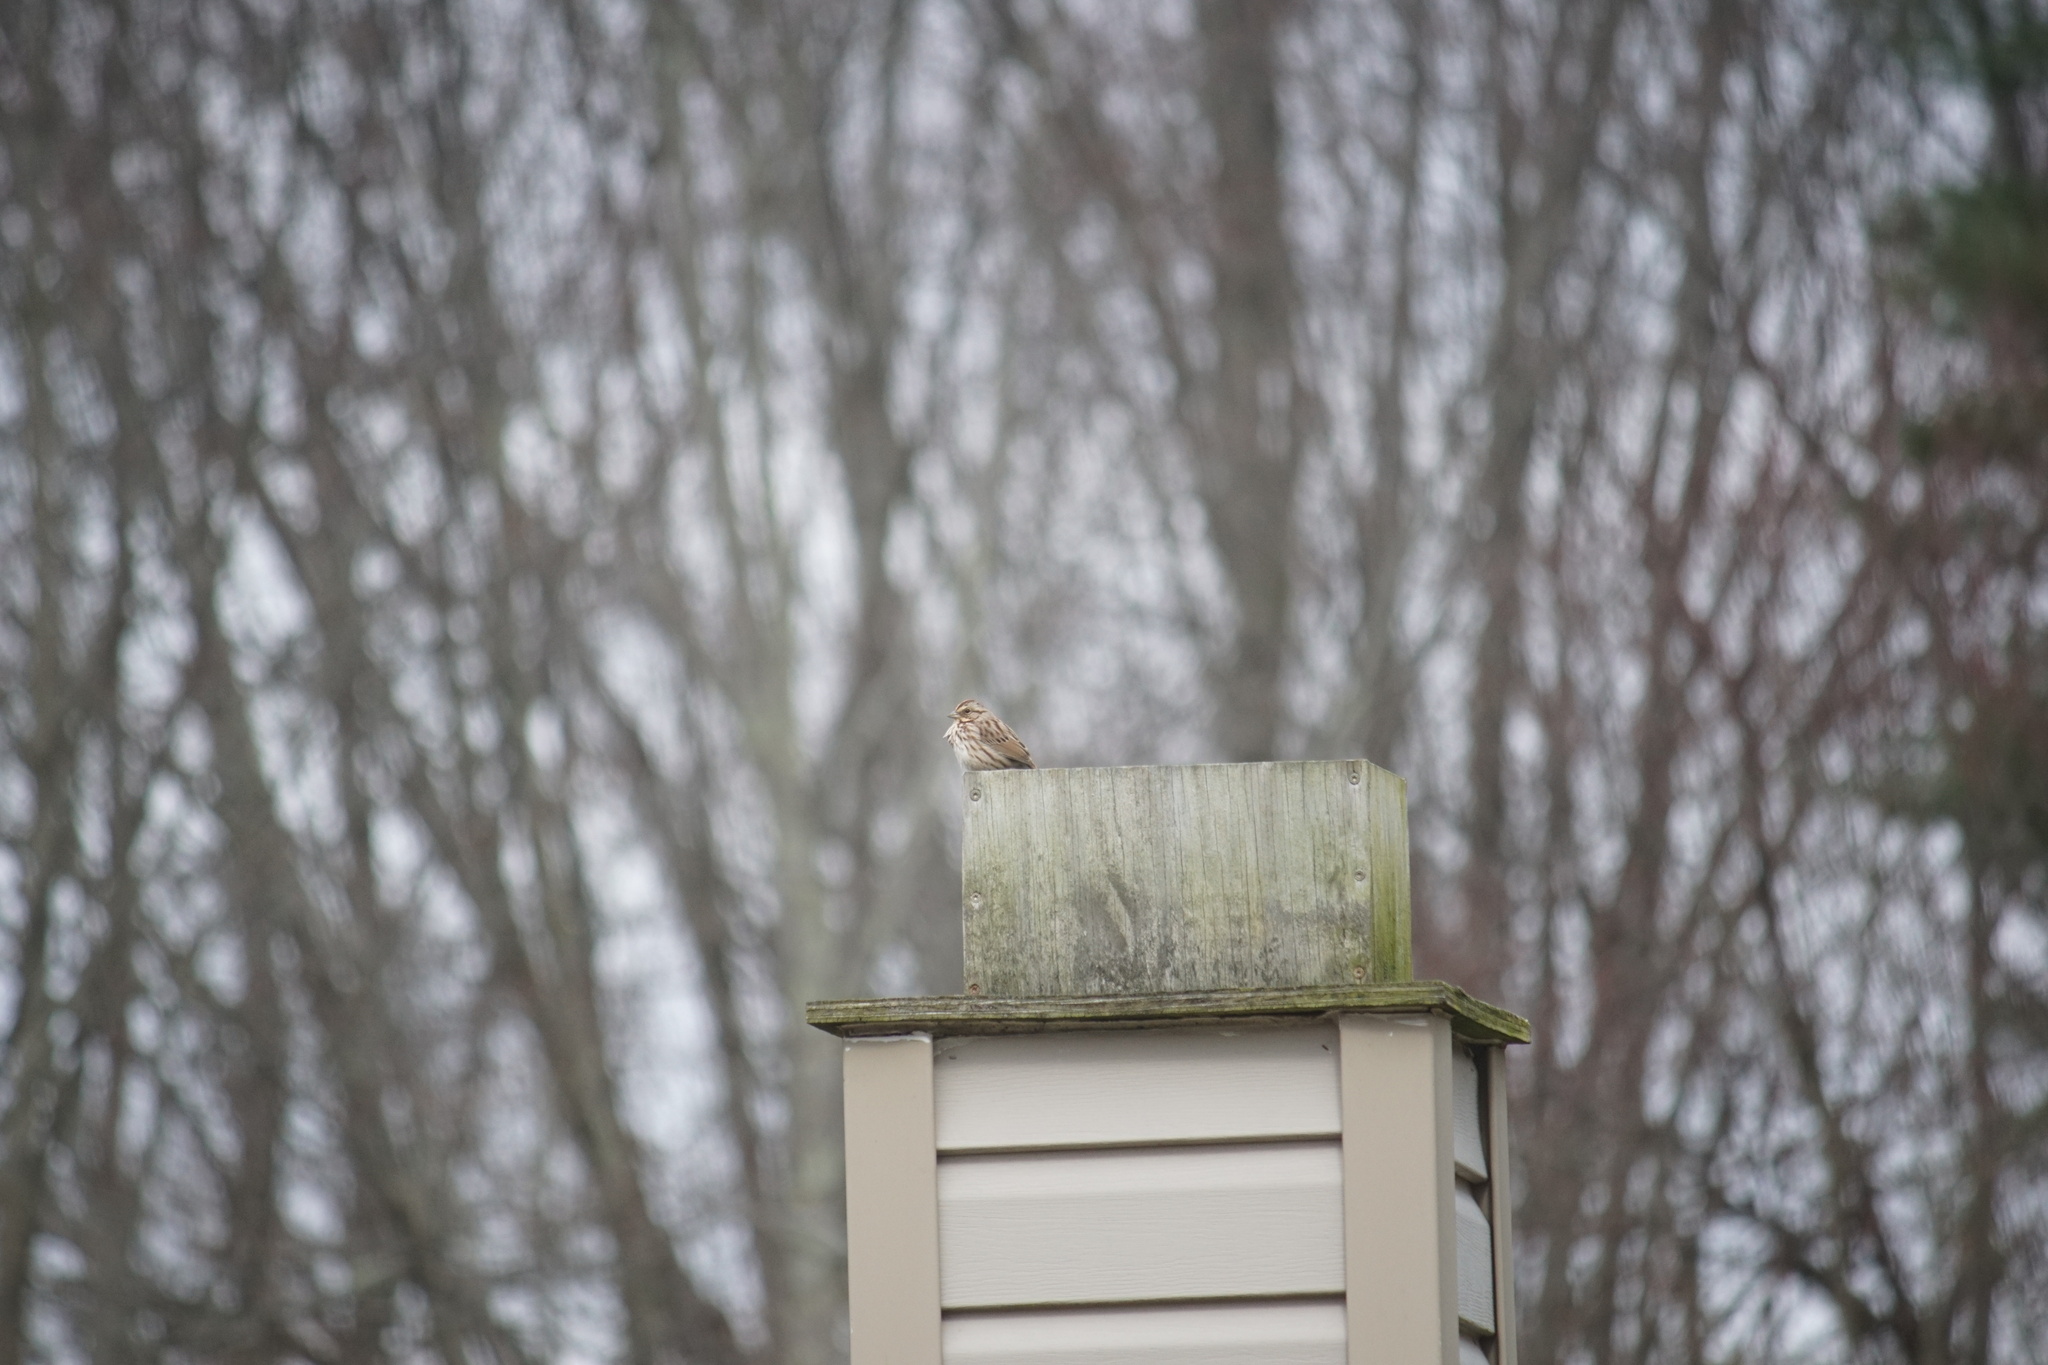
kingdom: Animalia
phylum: Chordata
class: Aves
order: Passeriformes
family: Passerellidae
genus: Melospiza
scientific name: Melospiza melodia
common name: Song sparrow
